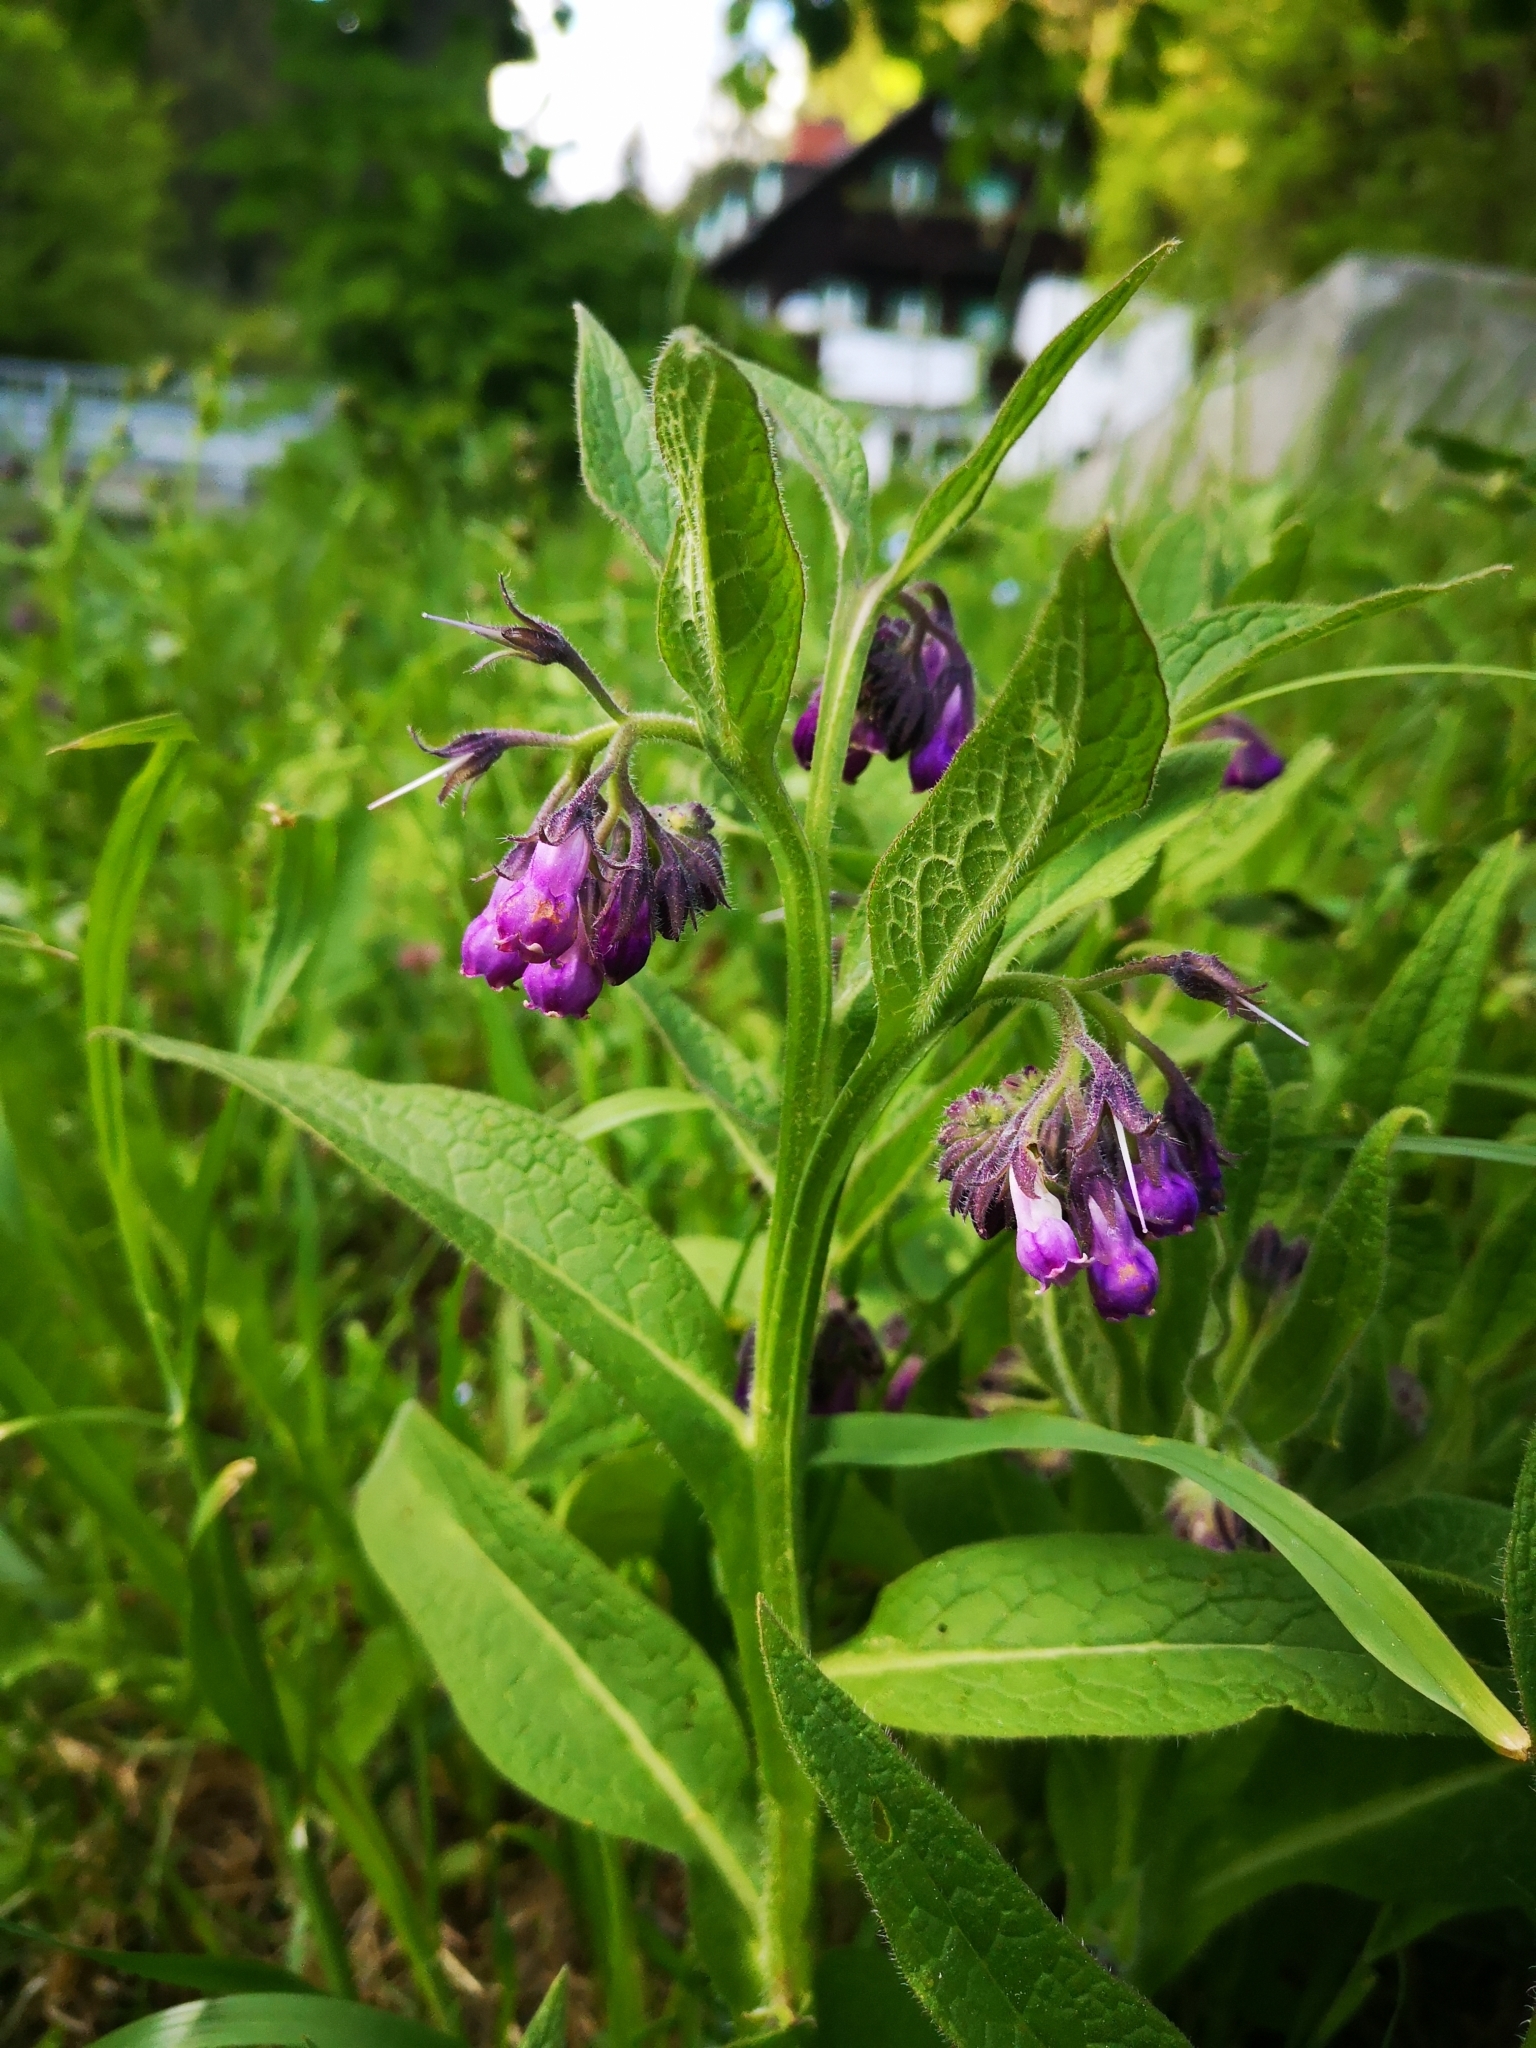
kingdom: Plantae
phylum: Tracheophyta
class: Magnoliopsida
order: Boraginales
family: Boraginaceae
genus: Symphytum
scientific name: Symphytum officinale
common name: Common comfrey
